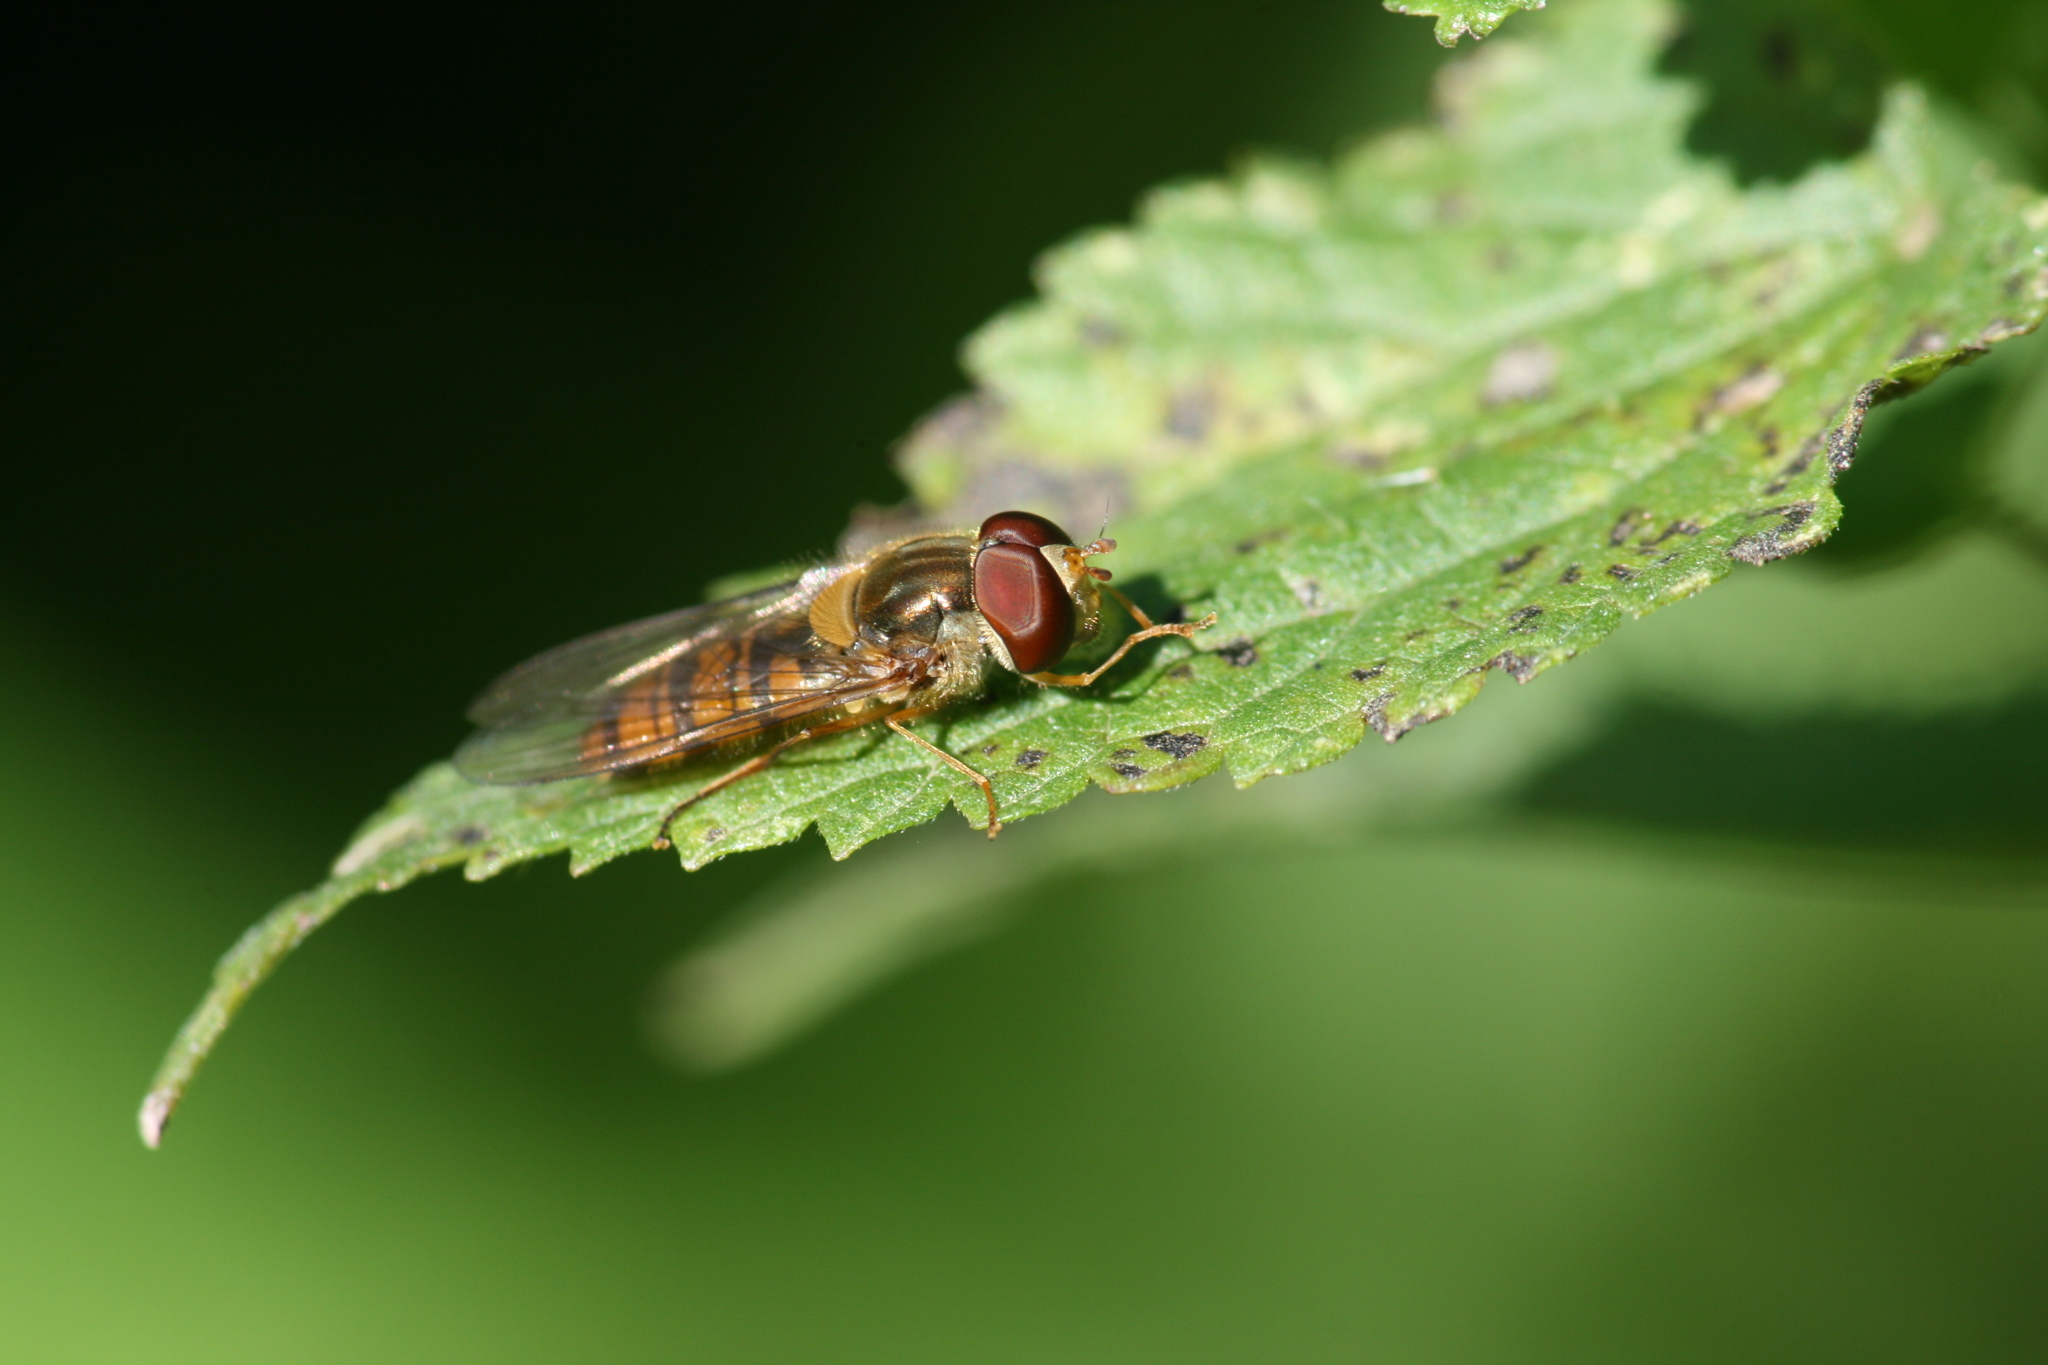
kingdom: Animalia
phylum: Arthropoda
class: Insecta
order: Diptera
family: Syrphidae
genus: Episyrphus
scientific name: Episyrphus balteatus
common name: Marmalade hoverfly
